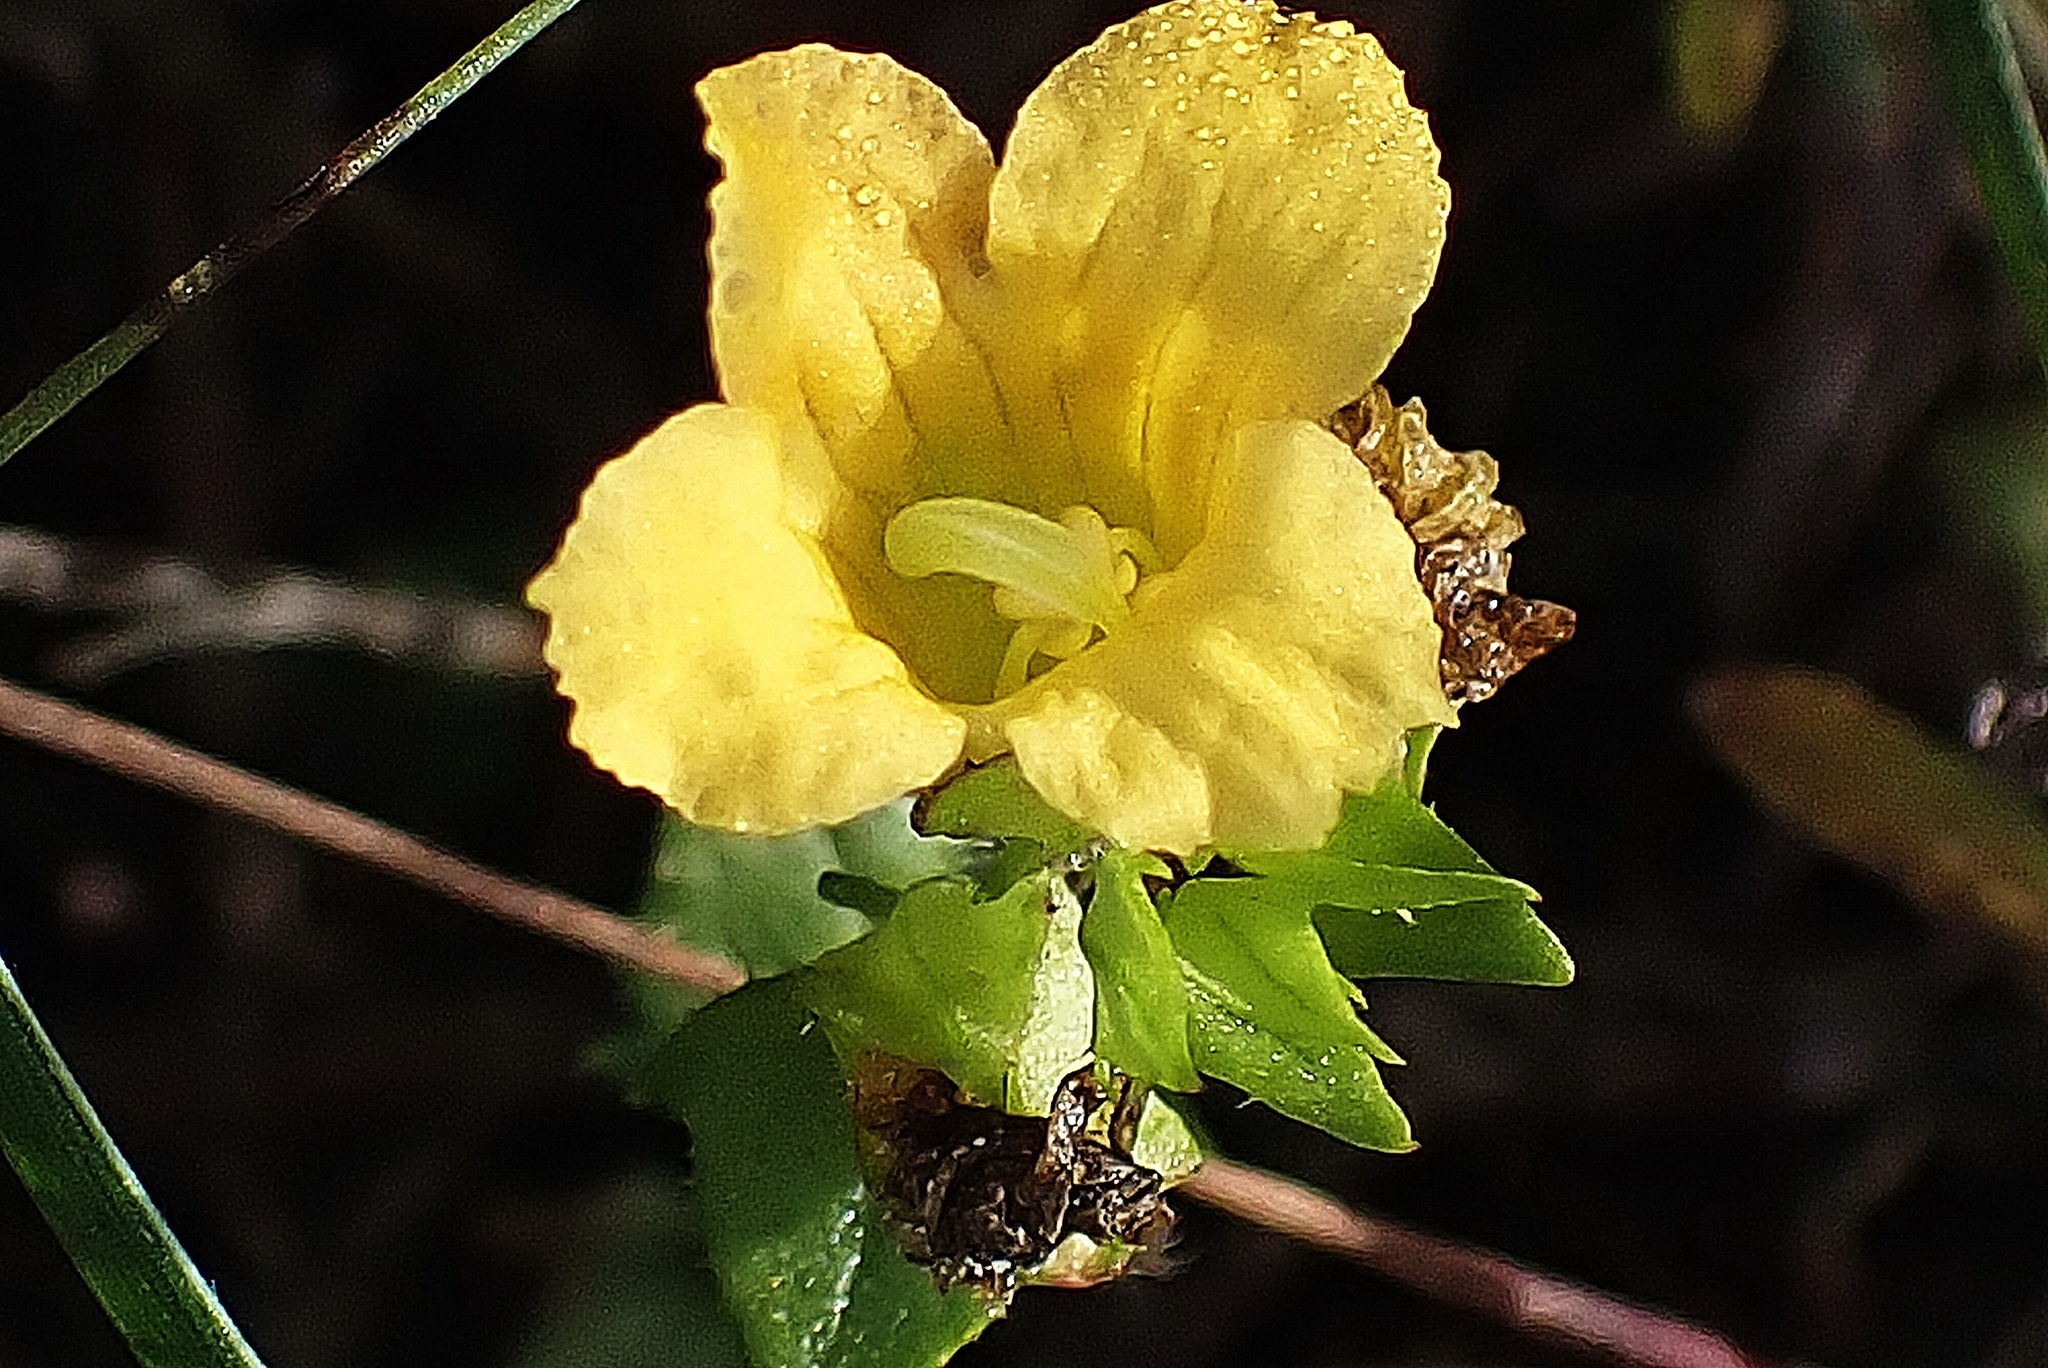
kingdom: Plantae
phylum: Tracheophyta
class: Magnoliopsida
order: Lamiales
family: Orobanchaceae
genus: Alectra
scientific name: Alectra sessiliflora
